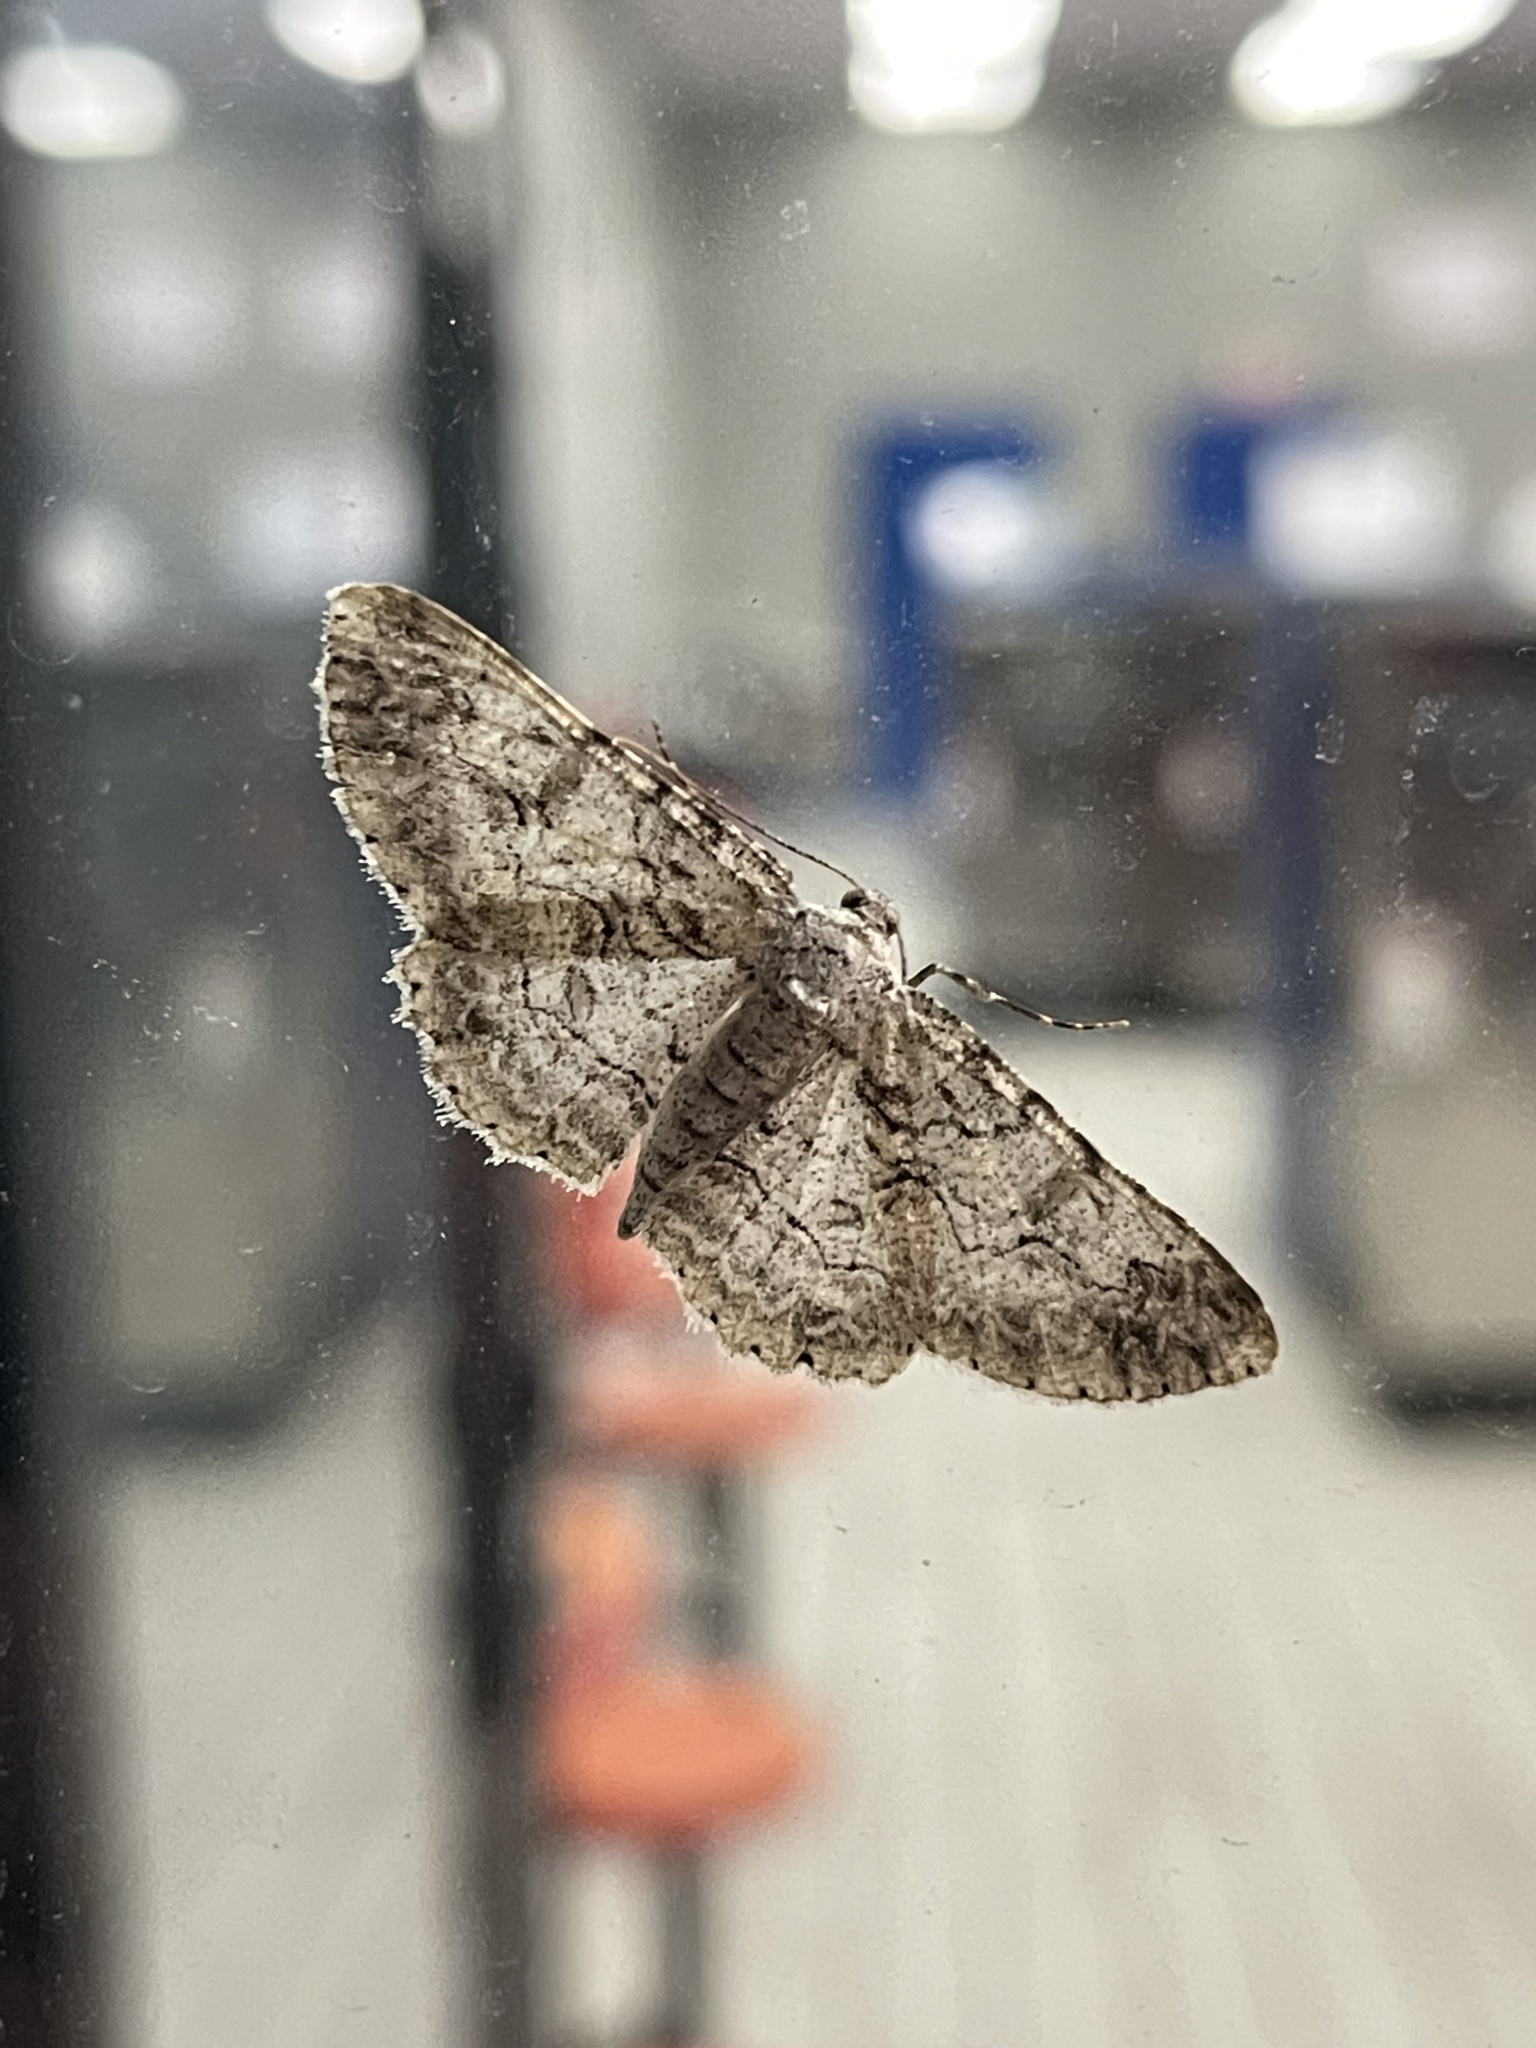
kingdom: Animalia
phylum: Arthropoda
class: Insecta
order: Lepidoptera
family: Geometridae
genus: Iridopsis
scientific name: Iridopsis defectaria
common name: Brown-shaded gray
